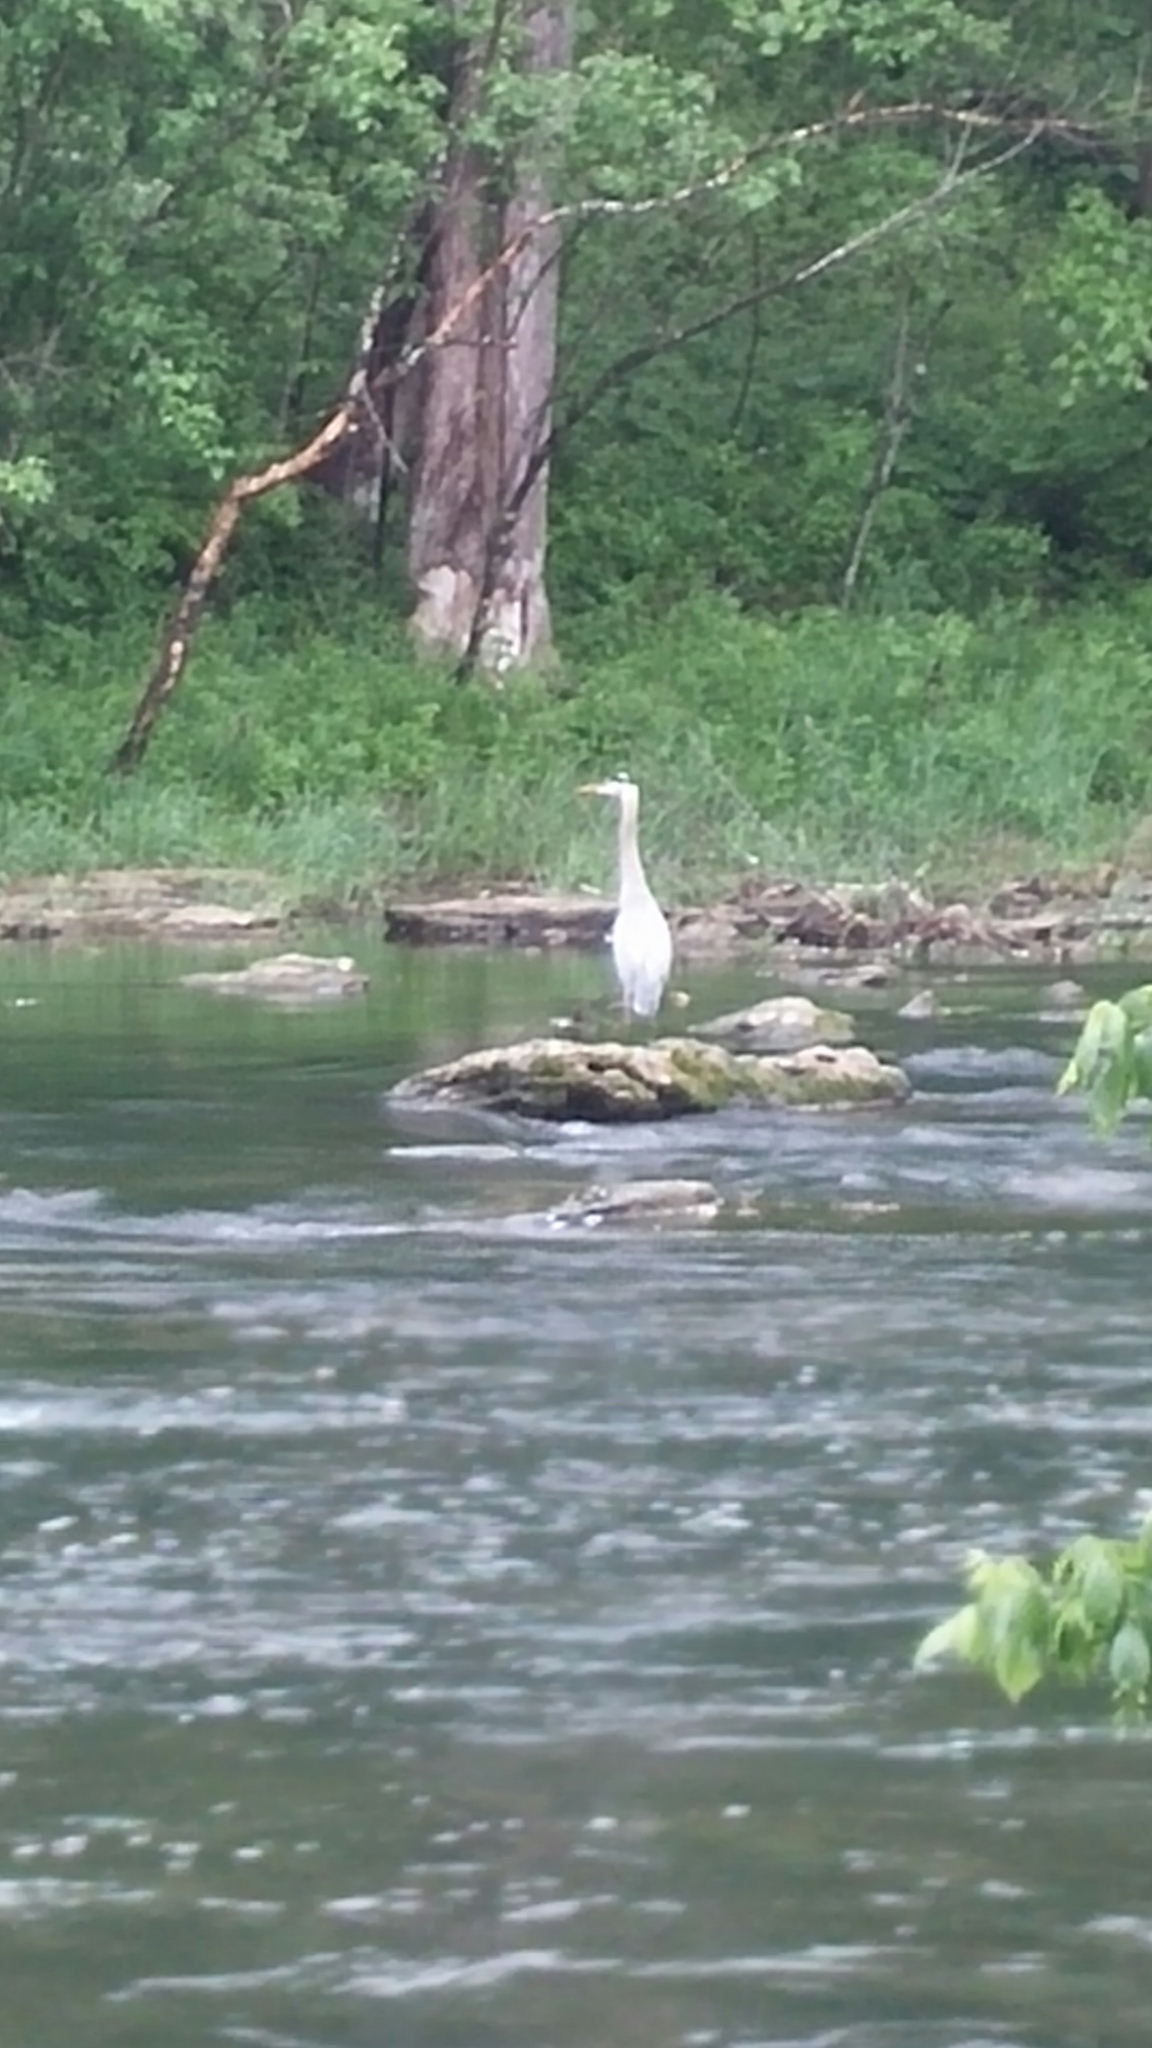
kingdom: Animalia
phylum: Chordata
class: Aves
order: Pelecaniformes
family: Ardeidae
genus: Ardea
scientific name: Ardea herodias
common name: Great blue heron
